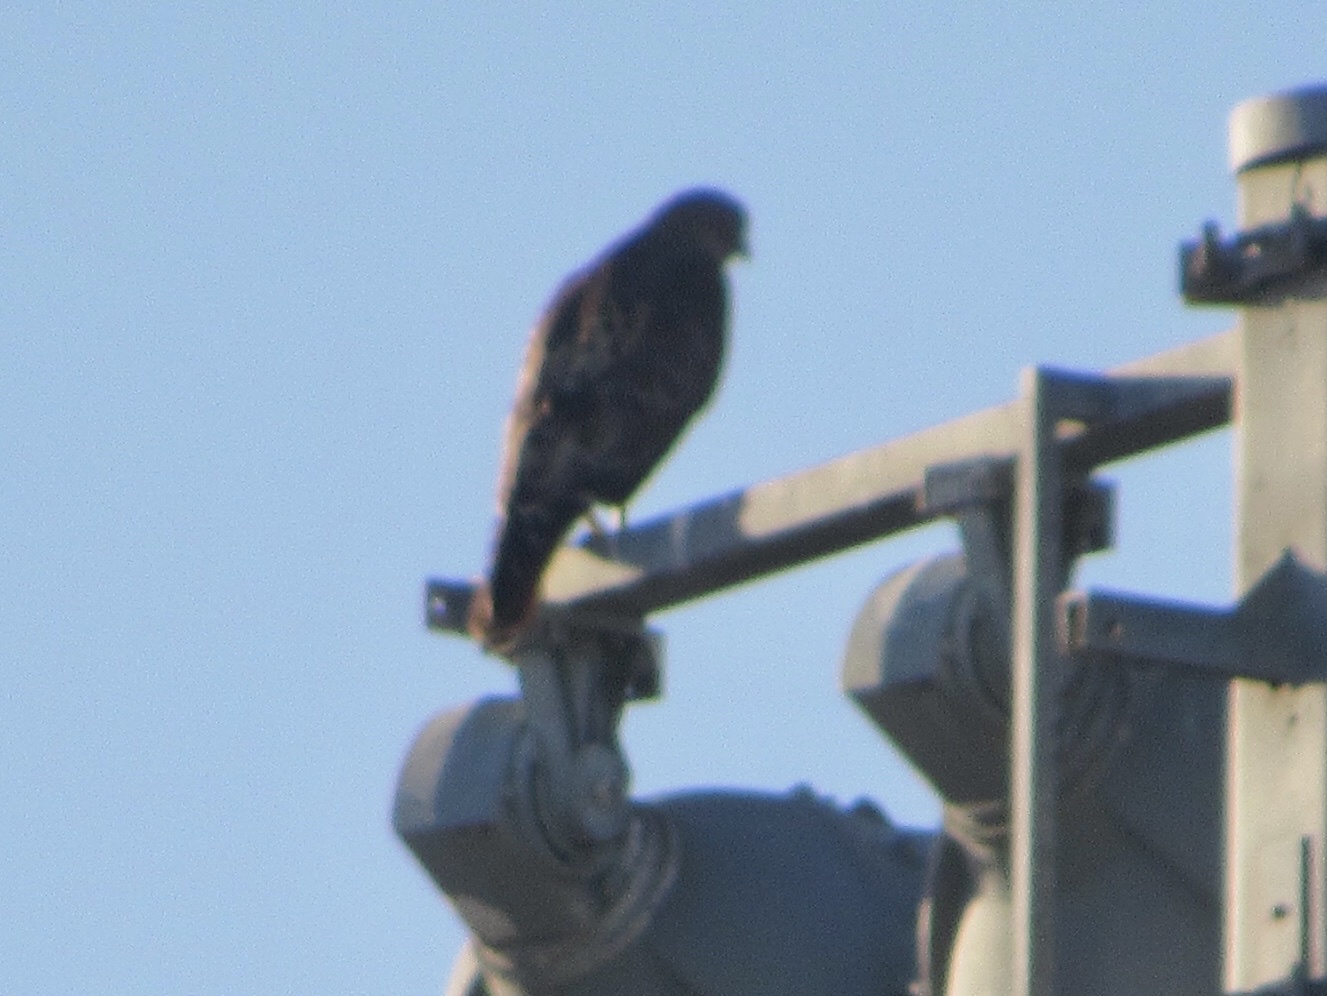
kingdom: Animalia
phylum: Chordata
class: Aves
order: Accipitriformes
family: Accipitridae
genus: Buteo
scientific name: Buteo jamaicensis
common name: Red-tailed hawk
